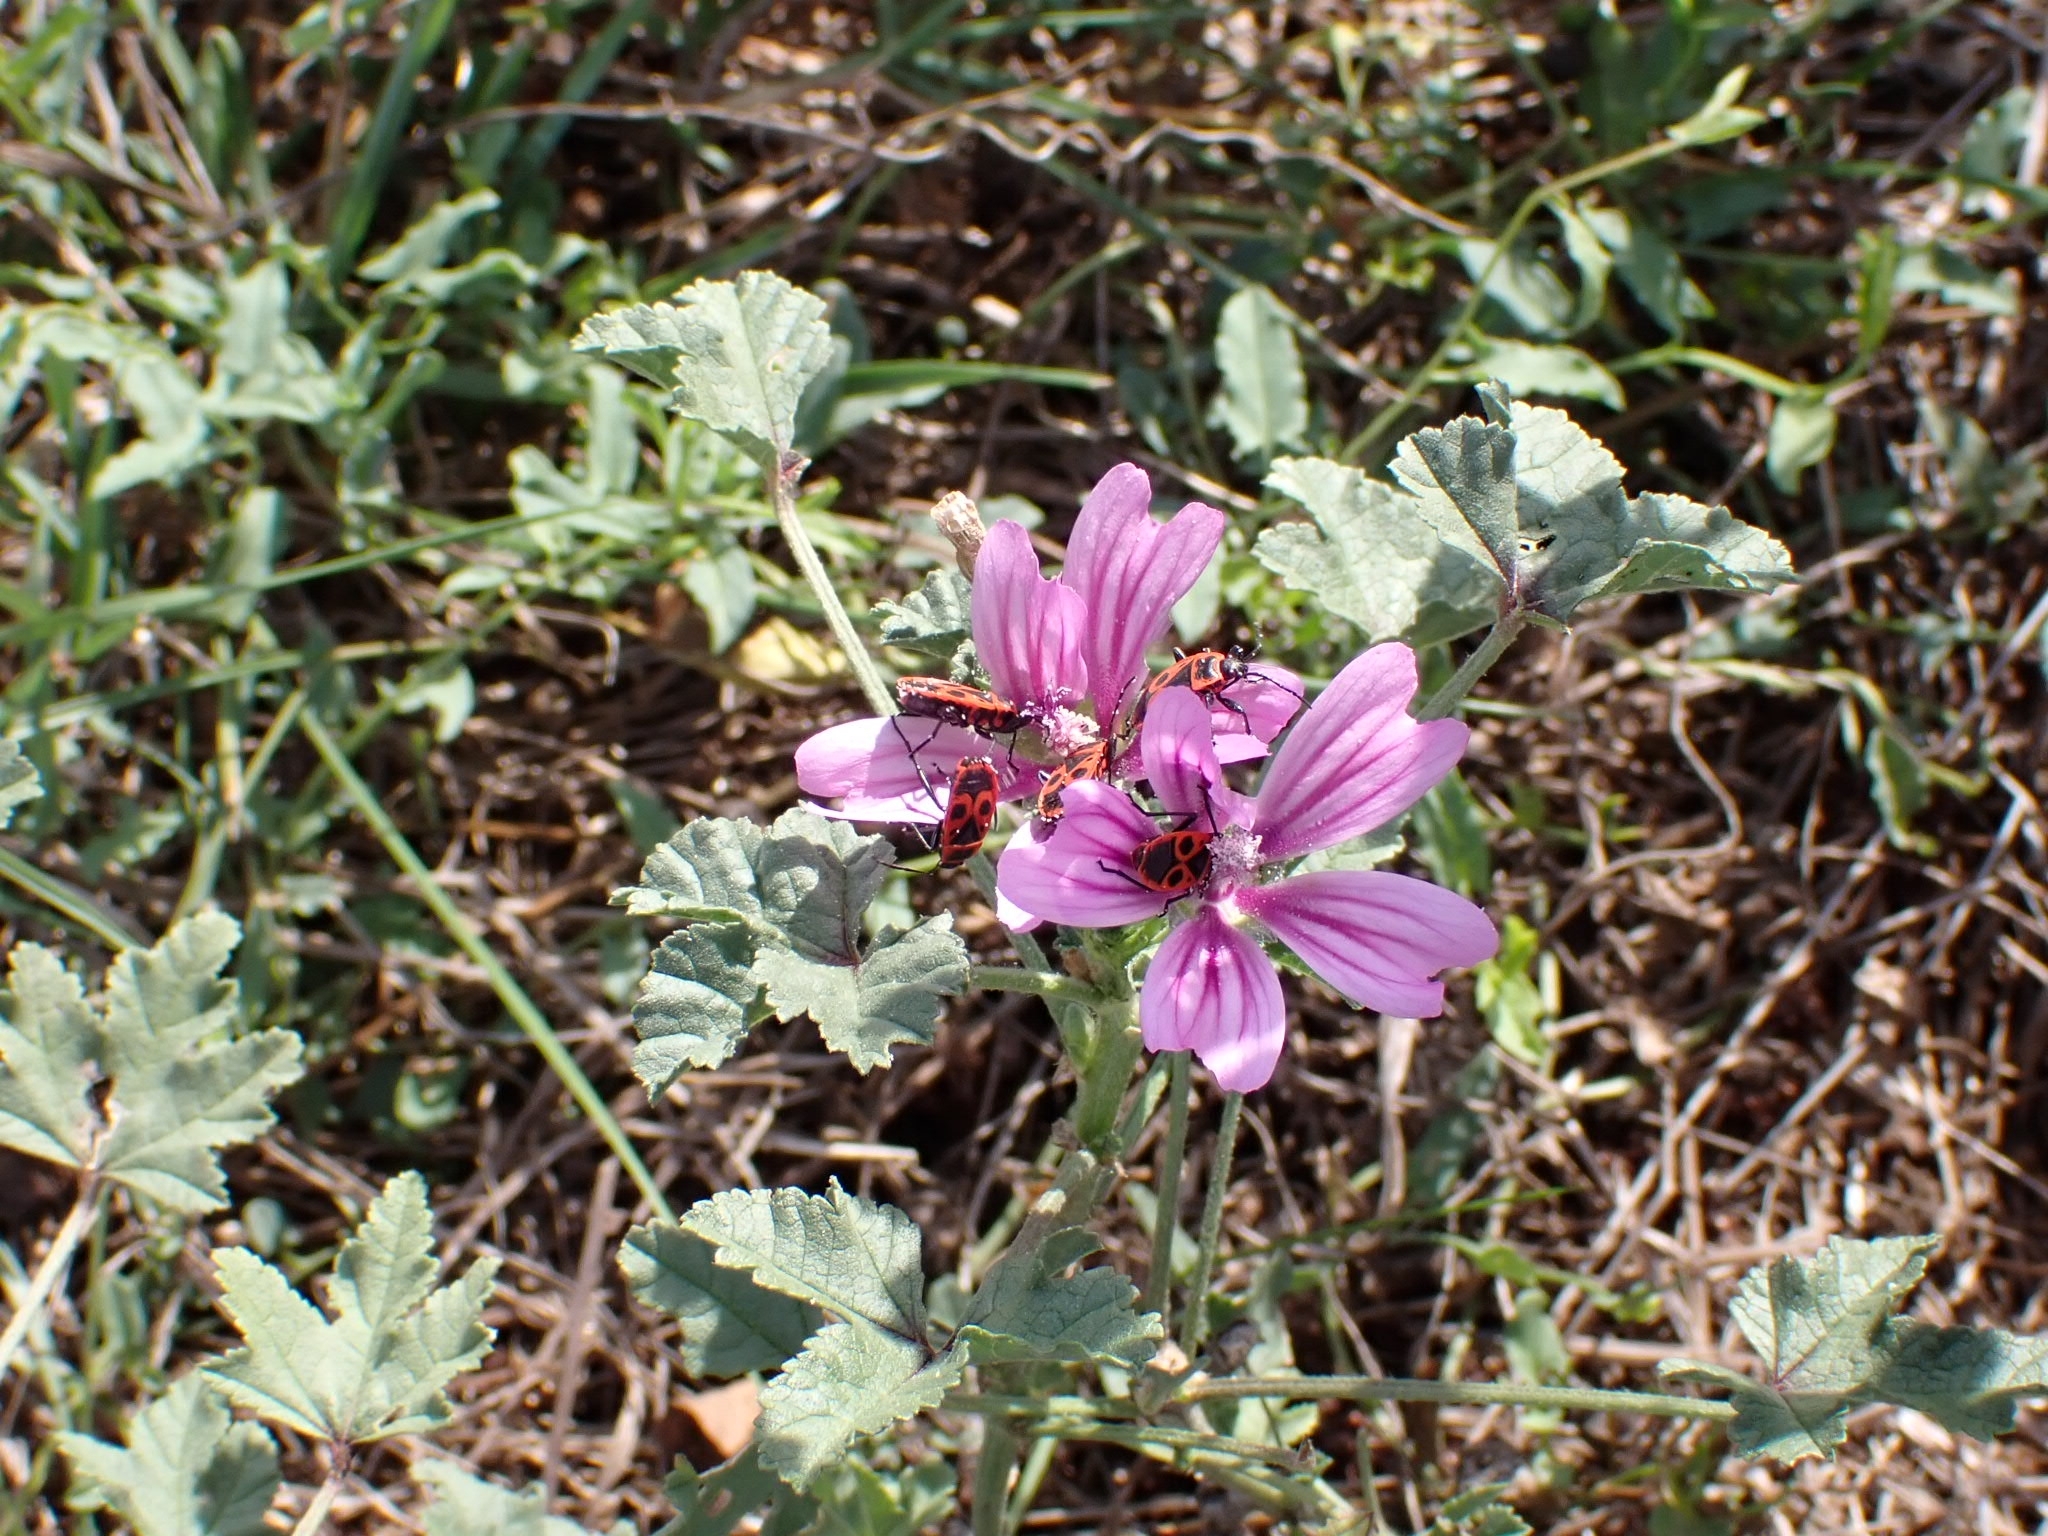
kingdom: Animalia
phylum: Arthropoda
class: Insecta
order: Hemiptera
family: Pyrrhocoridae
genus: Pyrrhocoris
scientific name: Pyrrhocoris apterus
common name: Firebug
